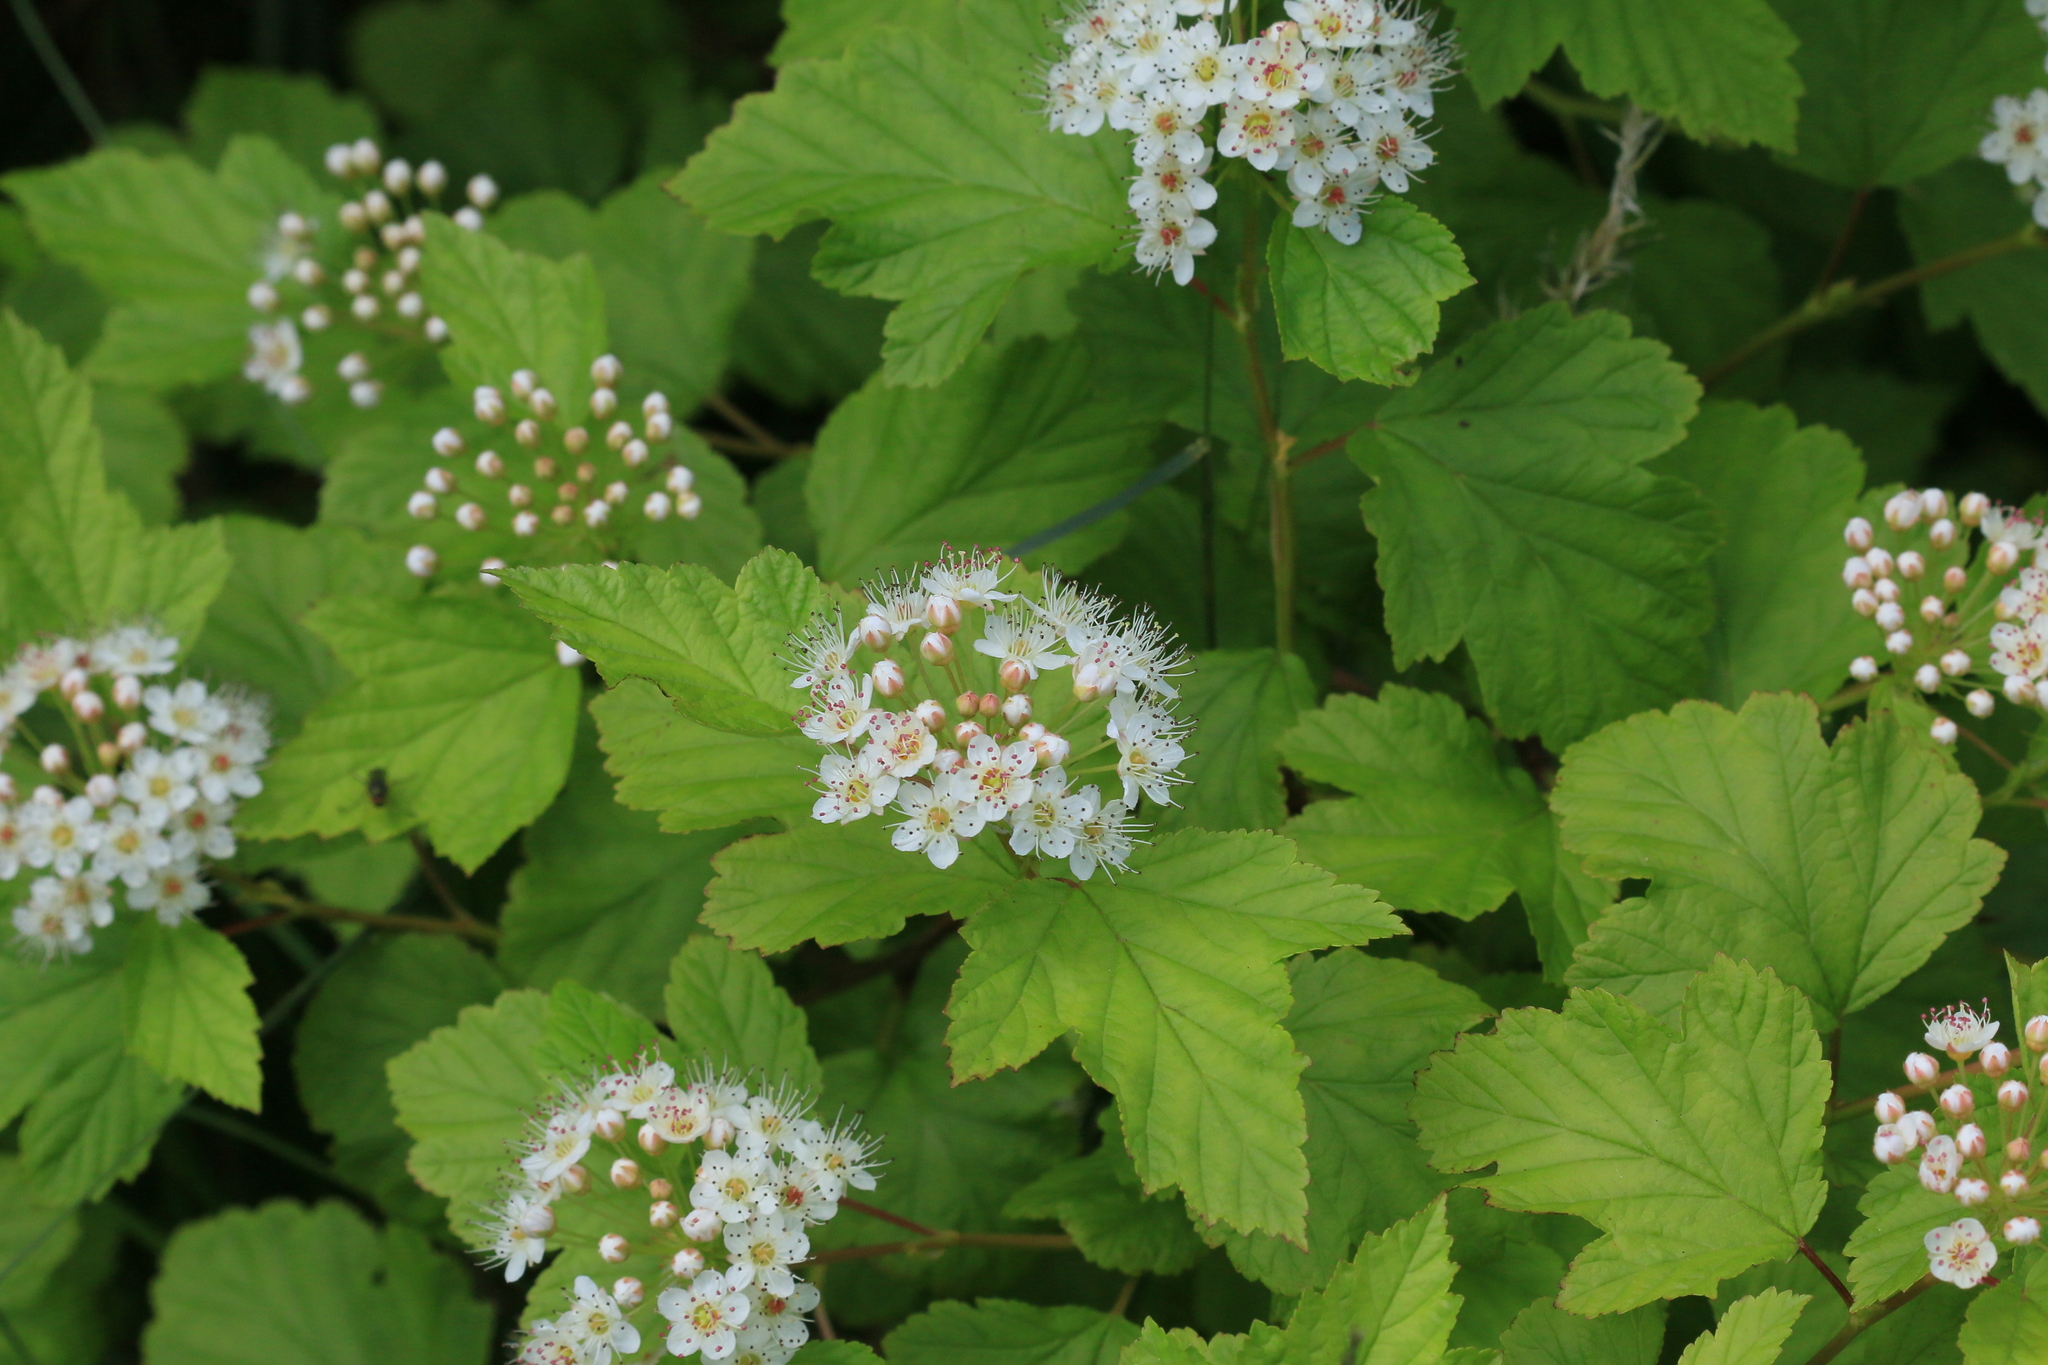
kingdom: Plantae
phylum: Tracheophyta
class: Magnoliopsida
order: Rosales
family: Rosaceae
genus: Physocarpus
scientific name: Physocarpus opulifolius
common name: Ninebark
